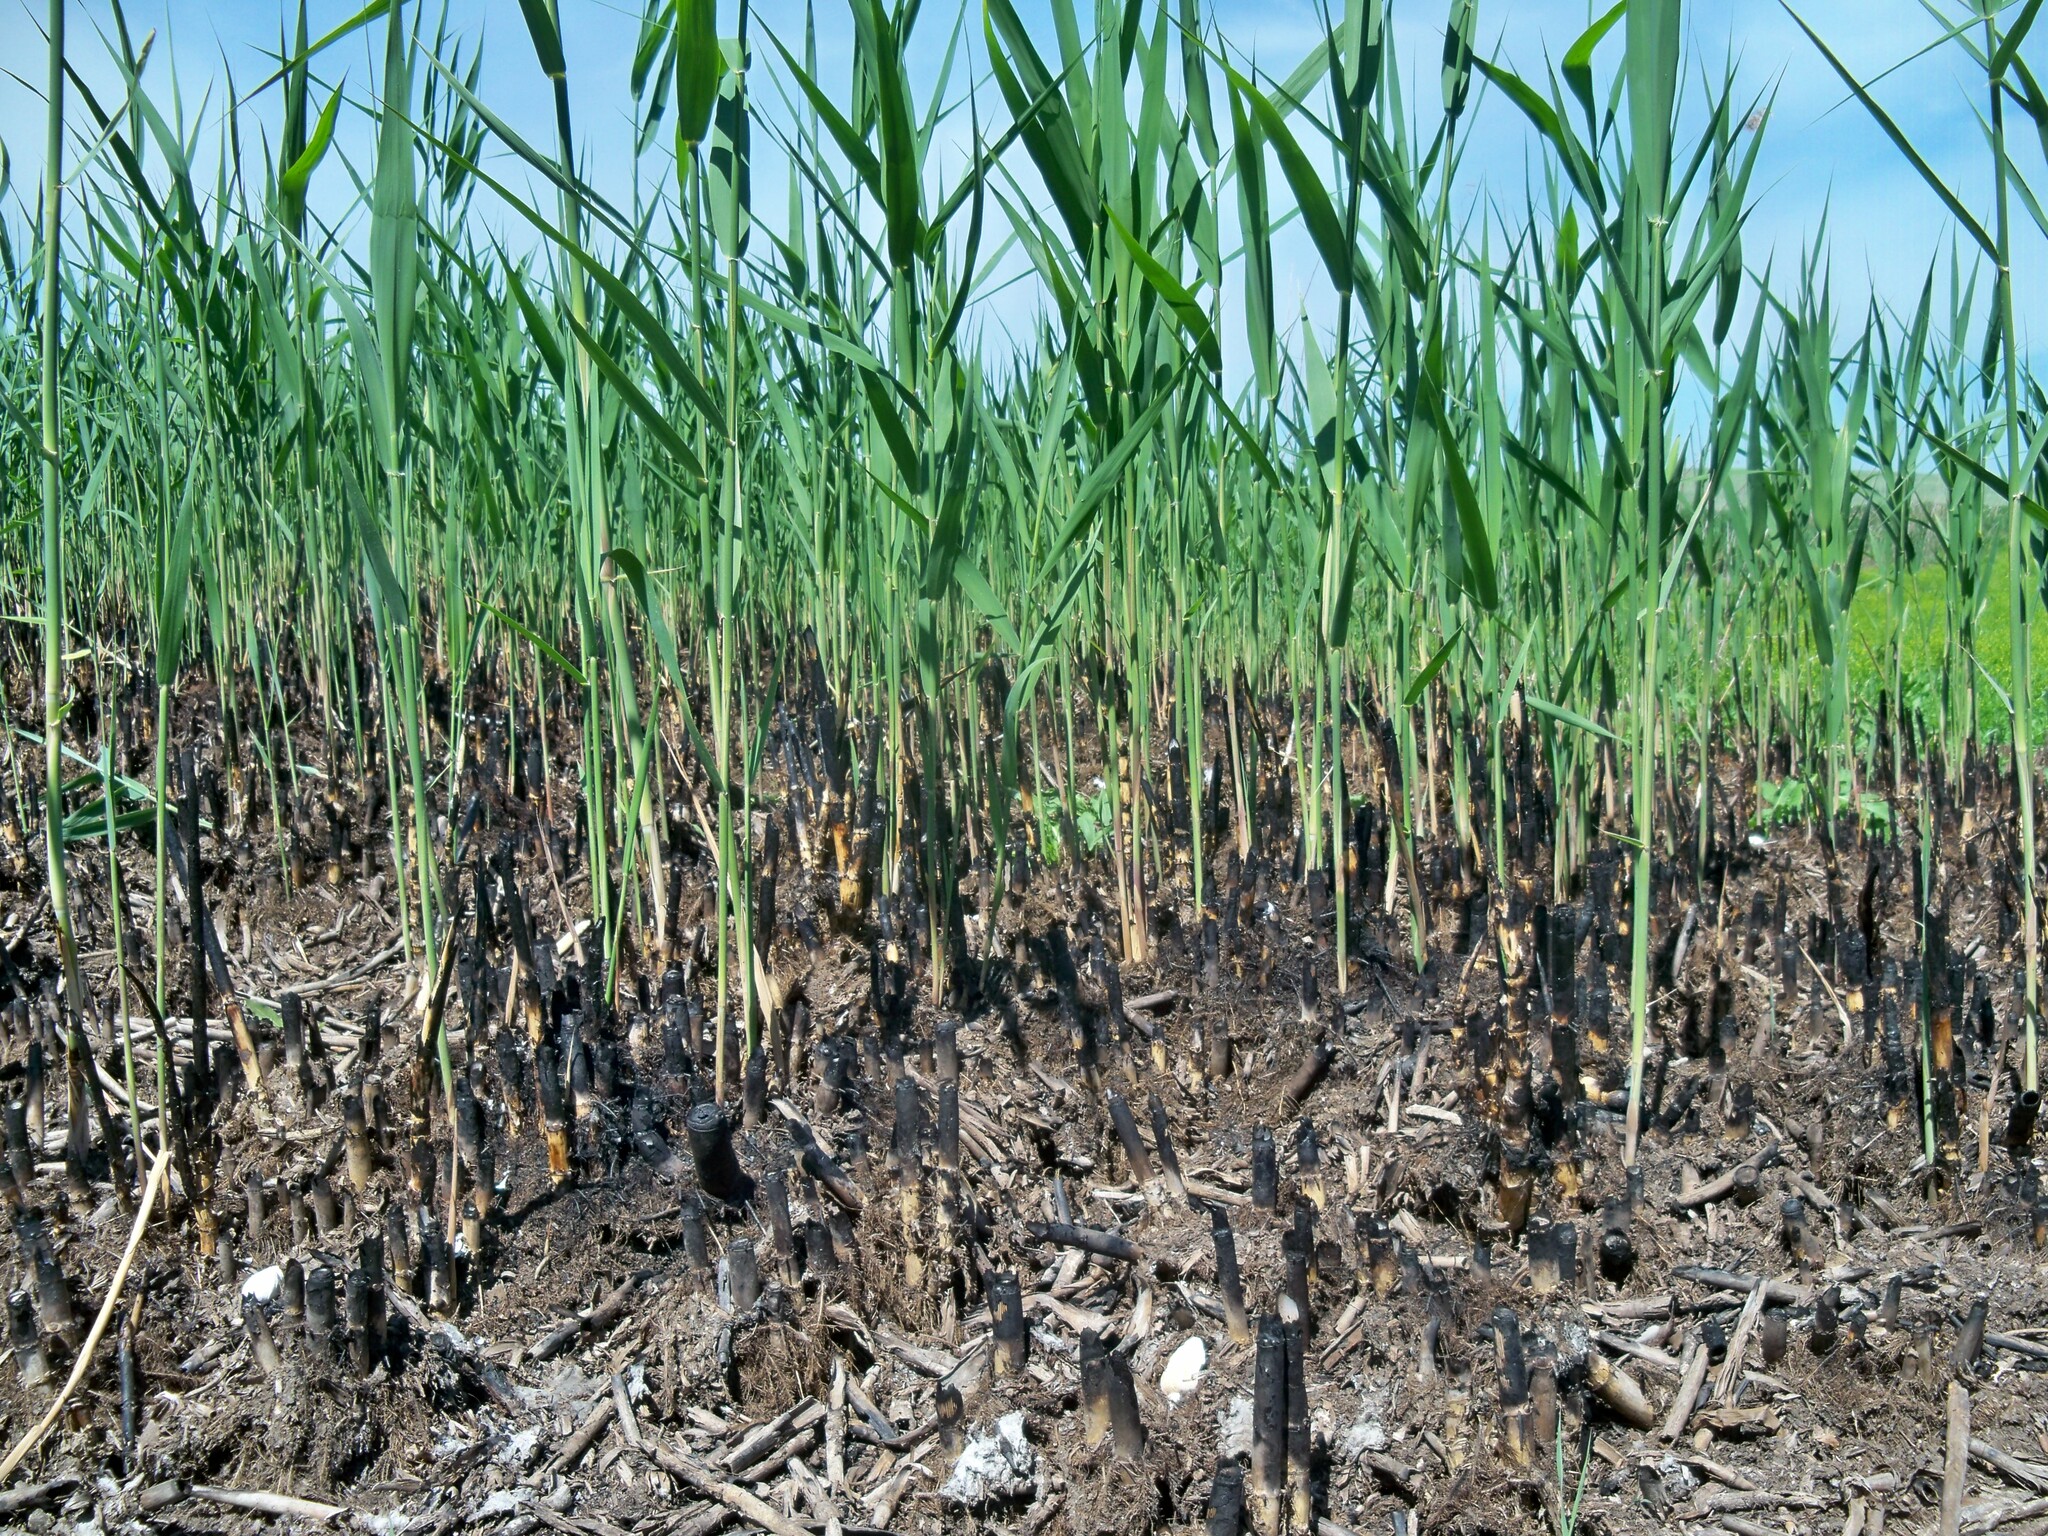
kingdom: Plantae
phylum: Tracheophyta
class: Liliopsida
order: Poales
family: Poaceae
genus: Phragmites
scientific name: Phragmites australis
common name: Common reed
